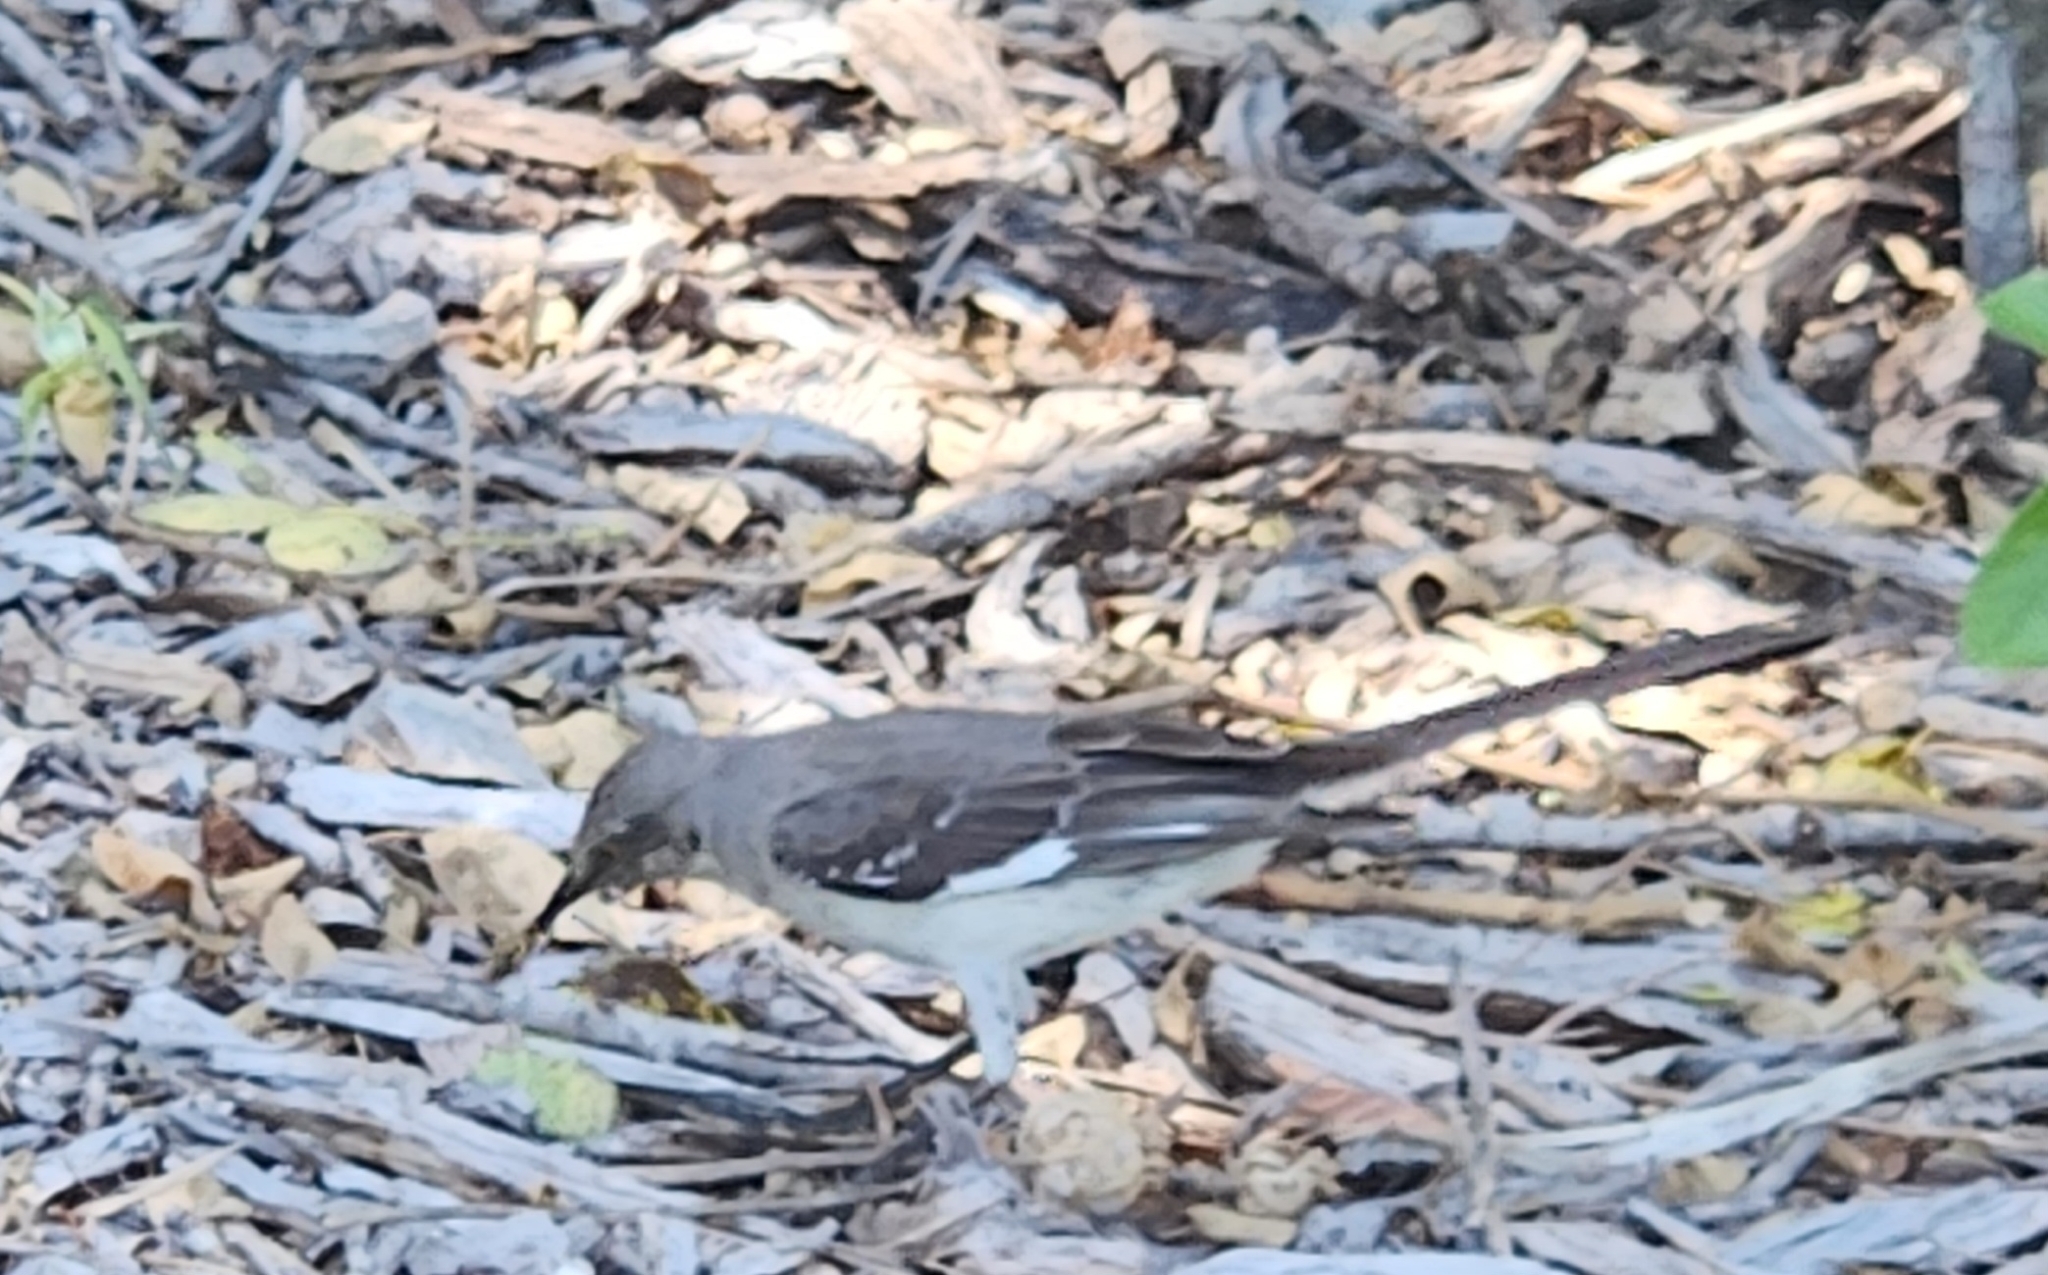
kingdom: Animalia
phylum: Chordata
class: Aves
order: Passeriformes
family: Mimidae
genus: Mimus
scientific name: Mimus polyglottos
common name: Northern mockingbird
